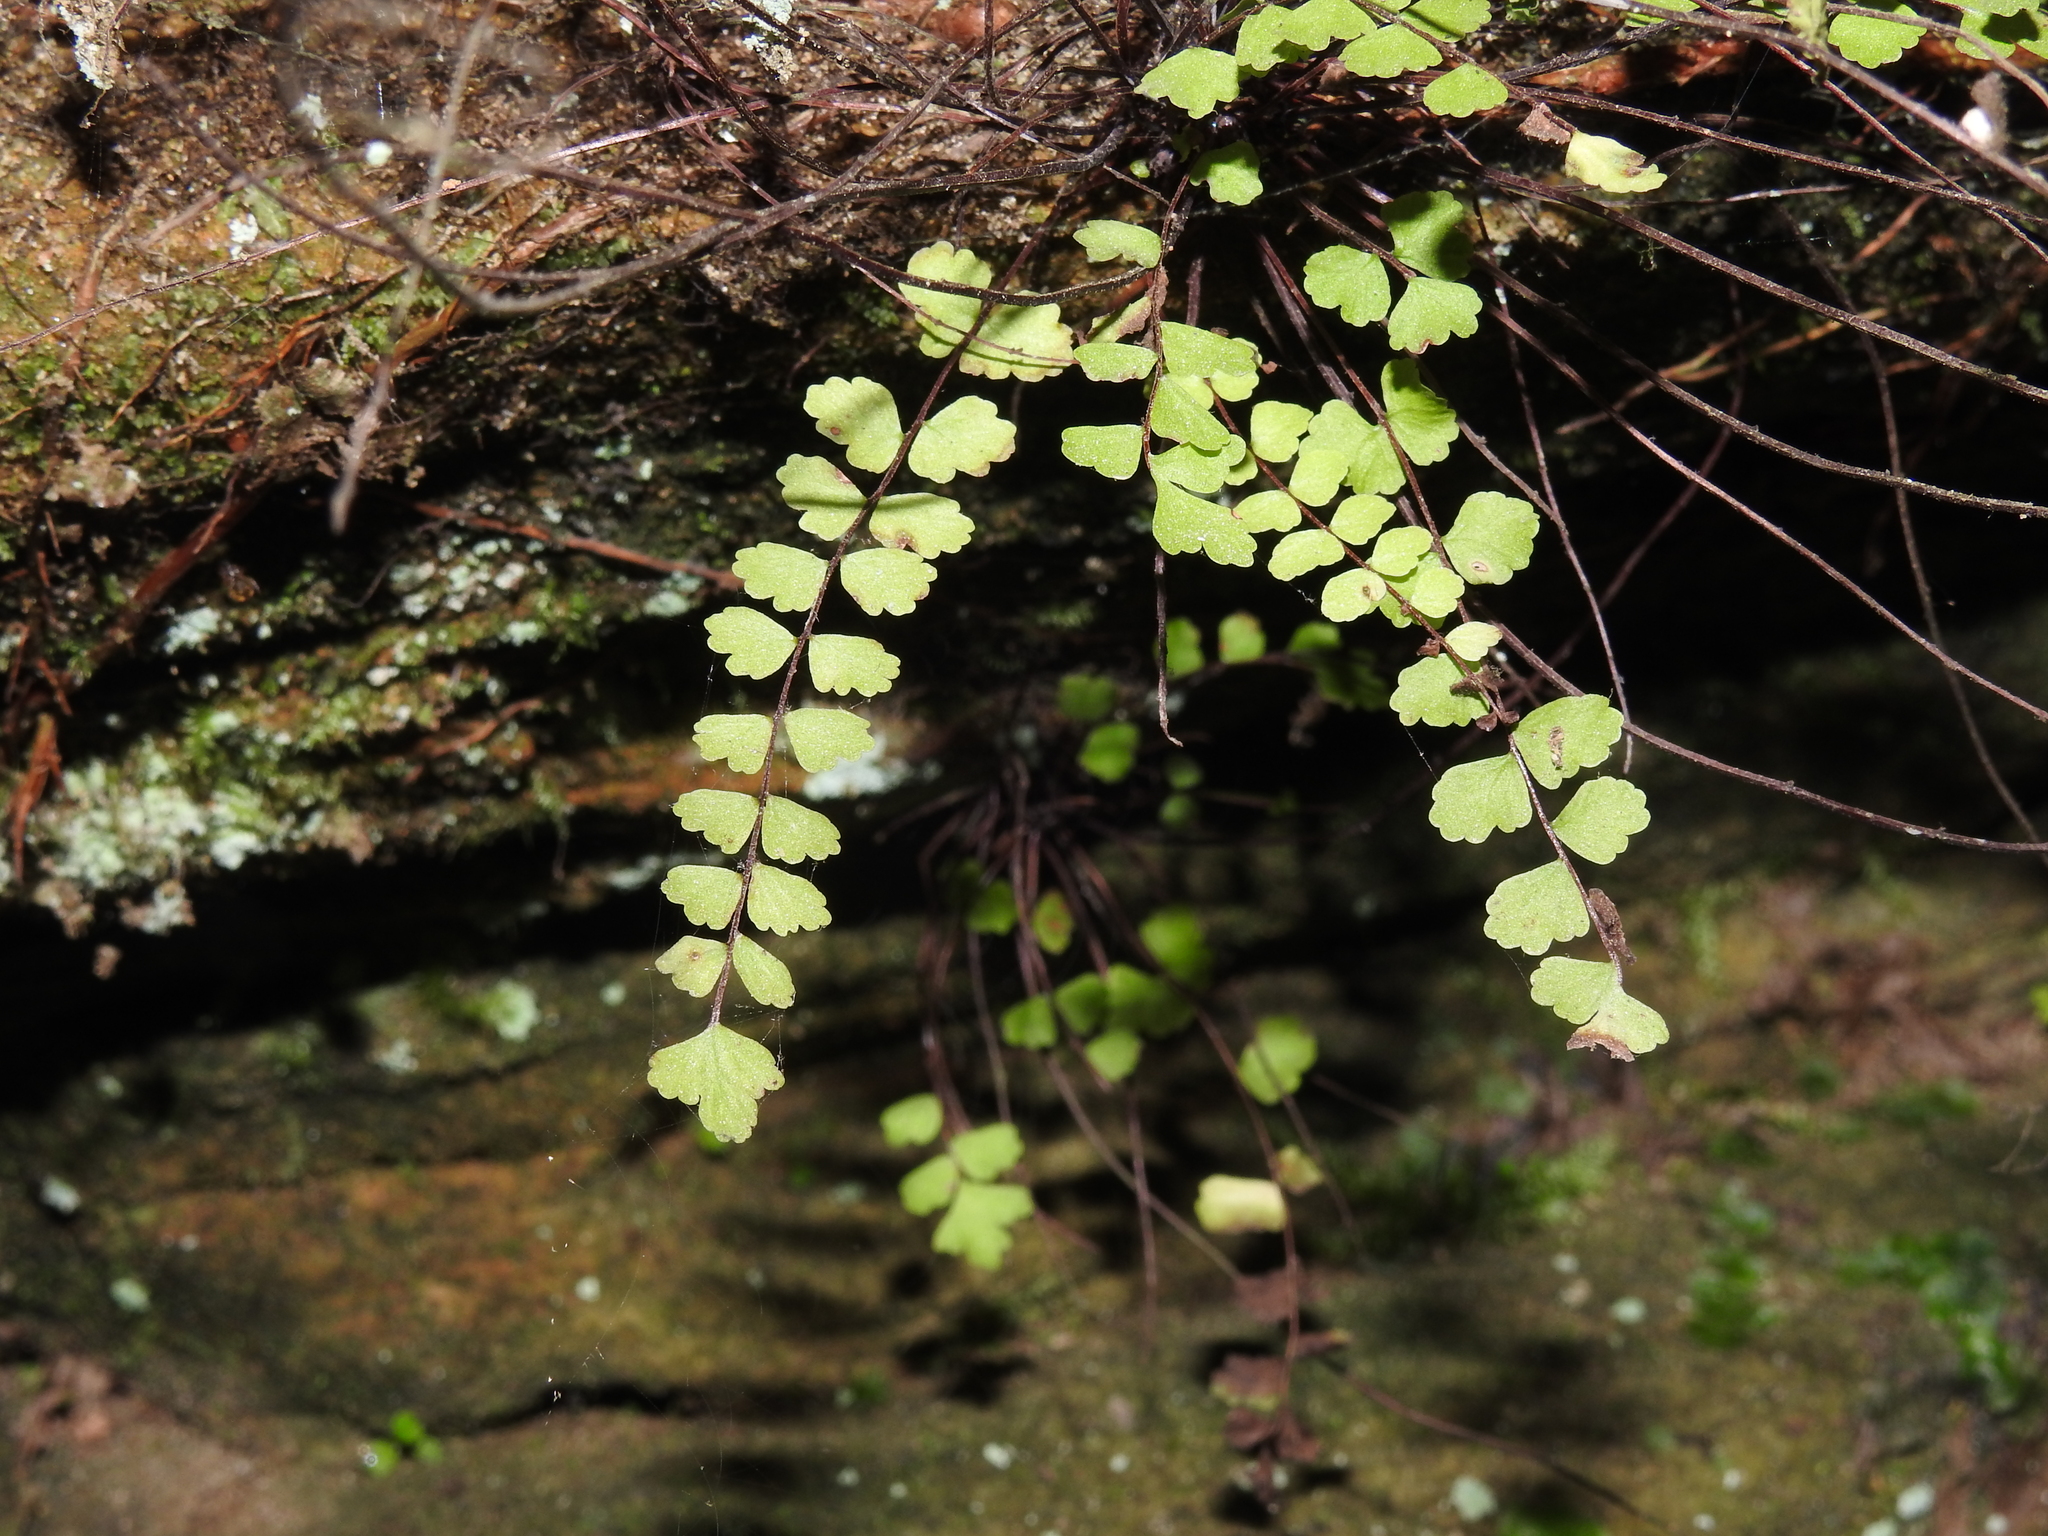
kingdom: Plantae
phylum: Tracheophyta
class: Polypodiopsida
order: Polypodiales
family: Aspleniaceae
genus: Asplenium
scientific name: Asplenium trichomanes
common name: Maidenhair spleenwort
